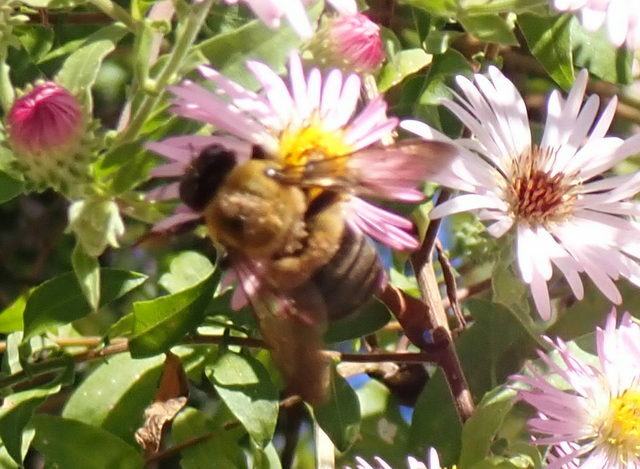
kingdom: Animalia
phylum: Arthropoda
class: Insecta
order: Hymenoptera
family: Apidae
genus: Xylocopa
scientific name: Xylocopa virginica
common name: Carpenter bee
